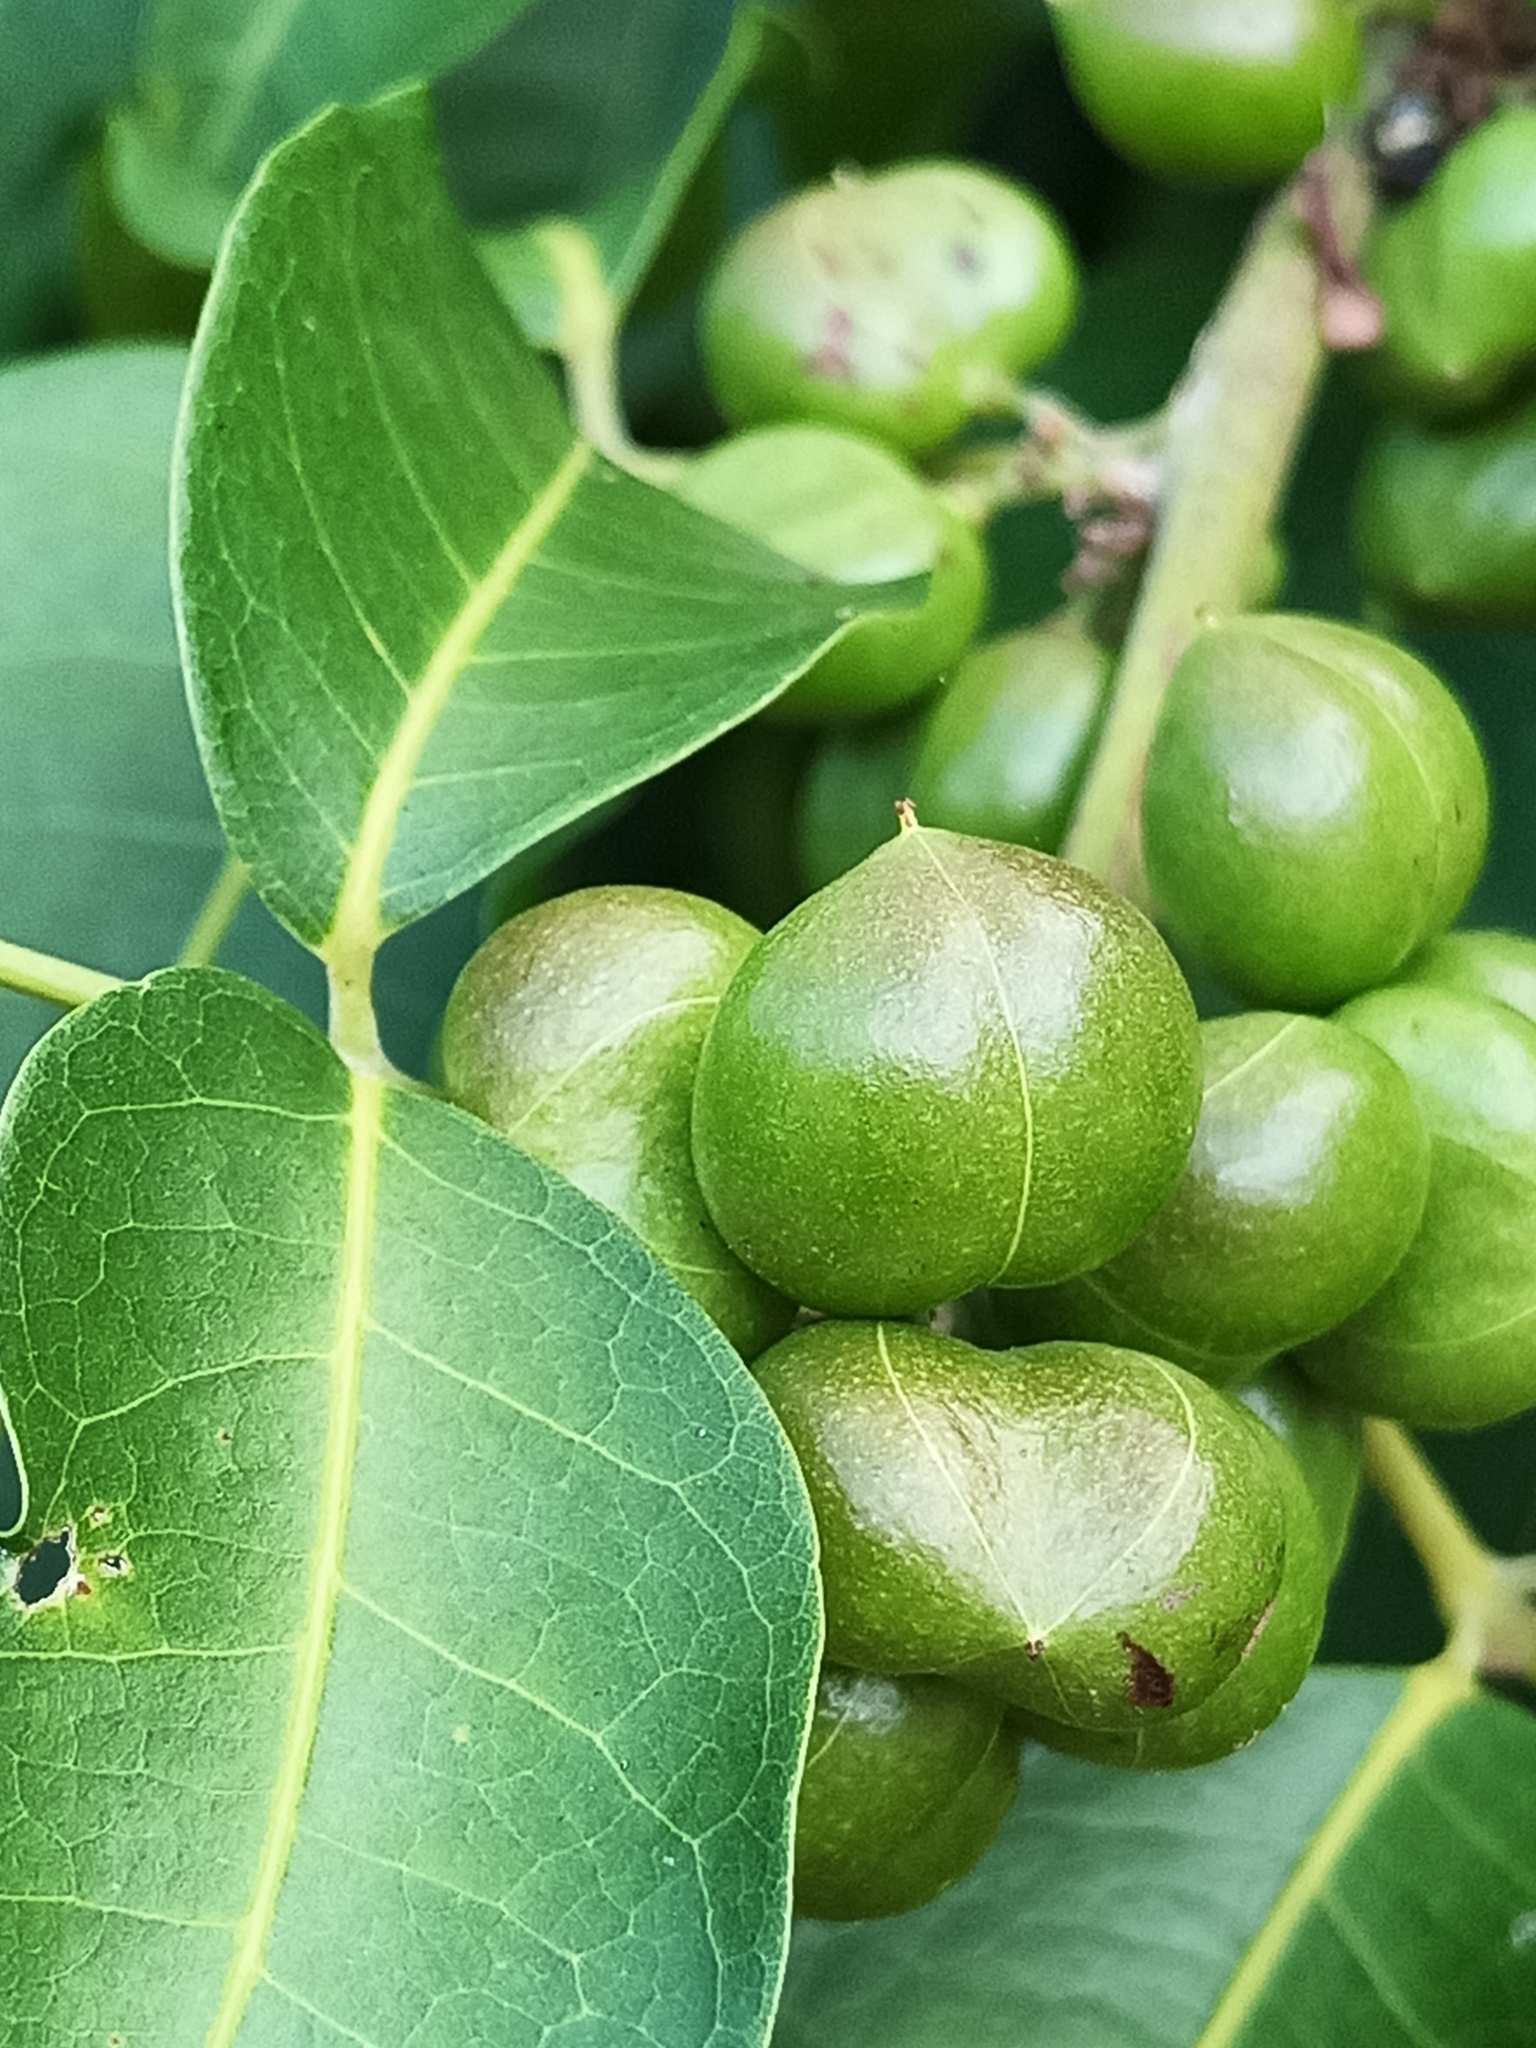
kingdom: Plantae
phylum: Tracheophyta
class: Magnoliopsida
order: Sapindales
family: Burseraceae
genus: Protium
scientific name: Protium heptaphyllum
